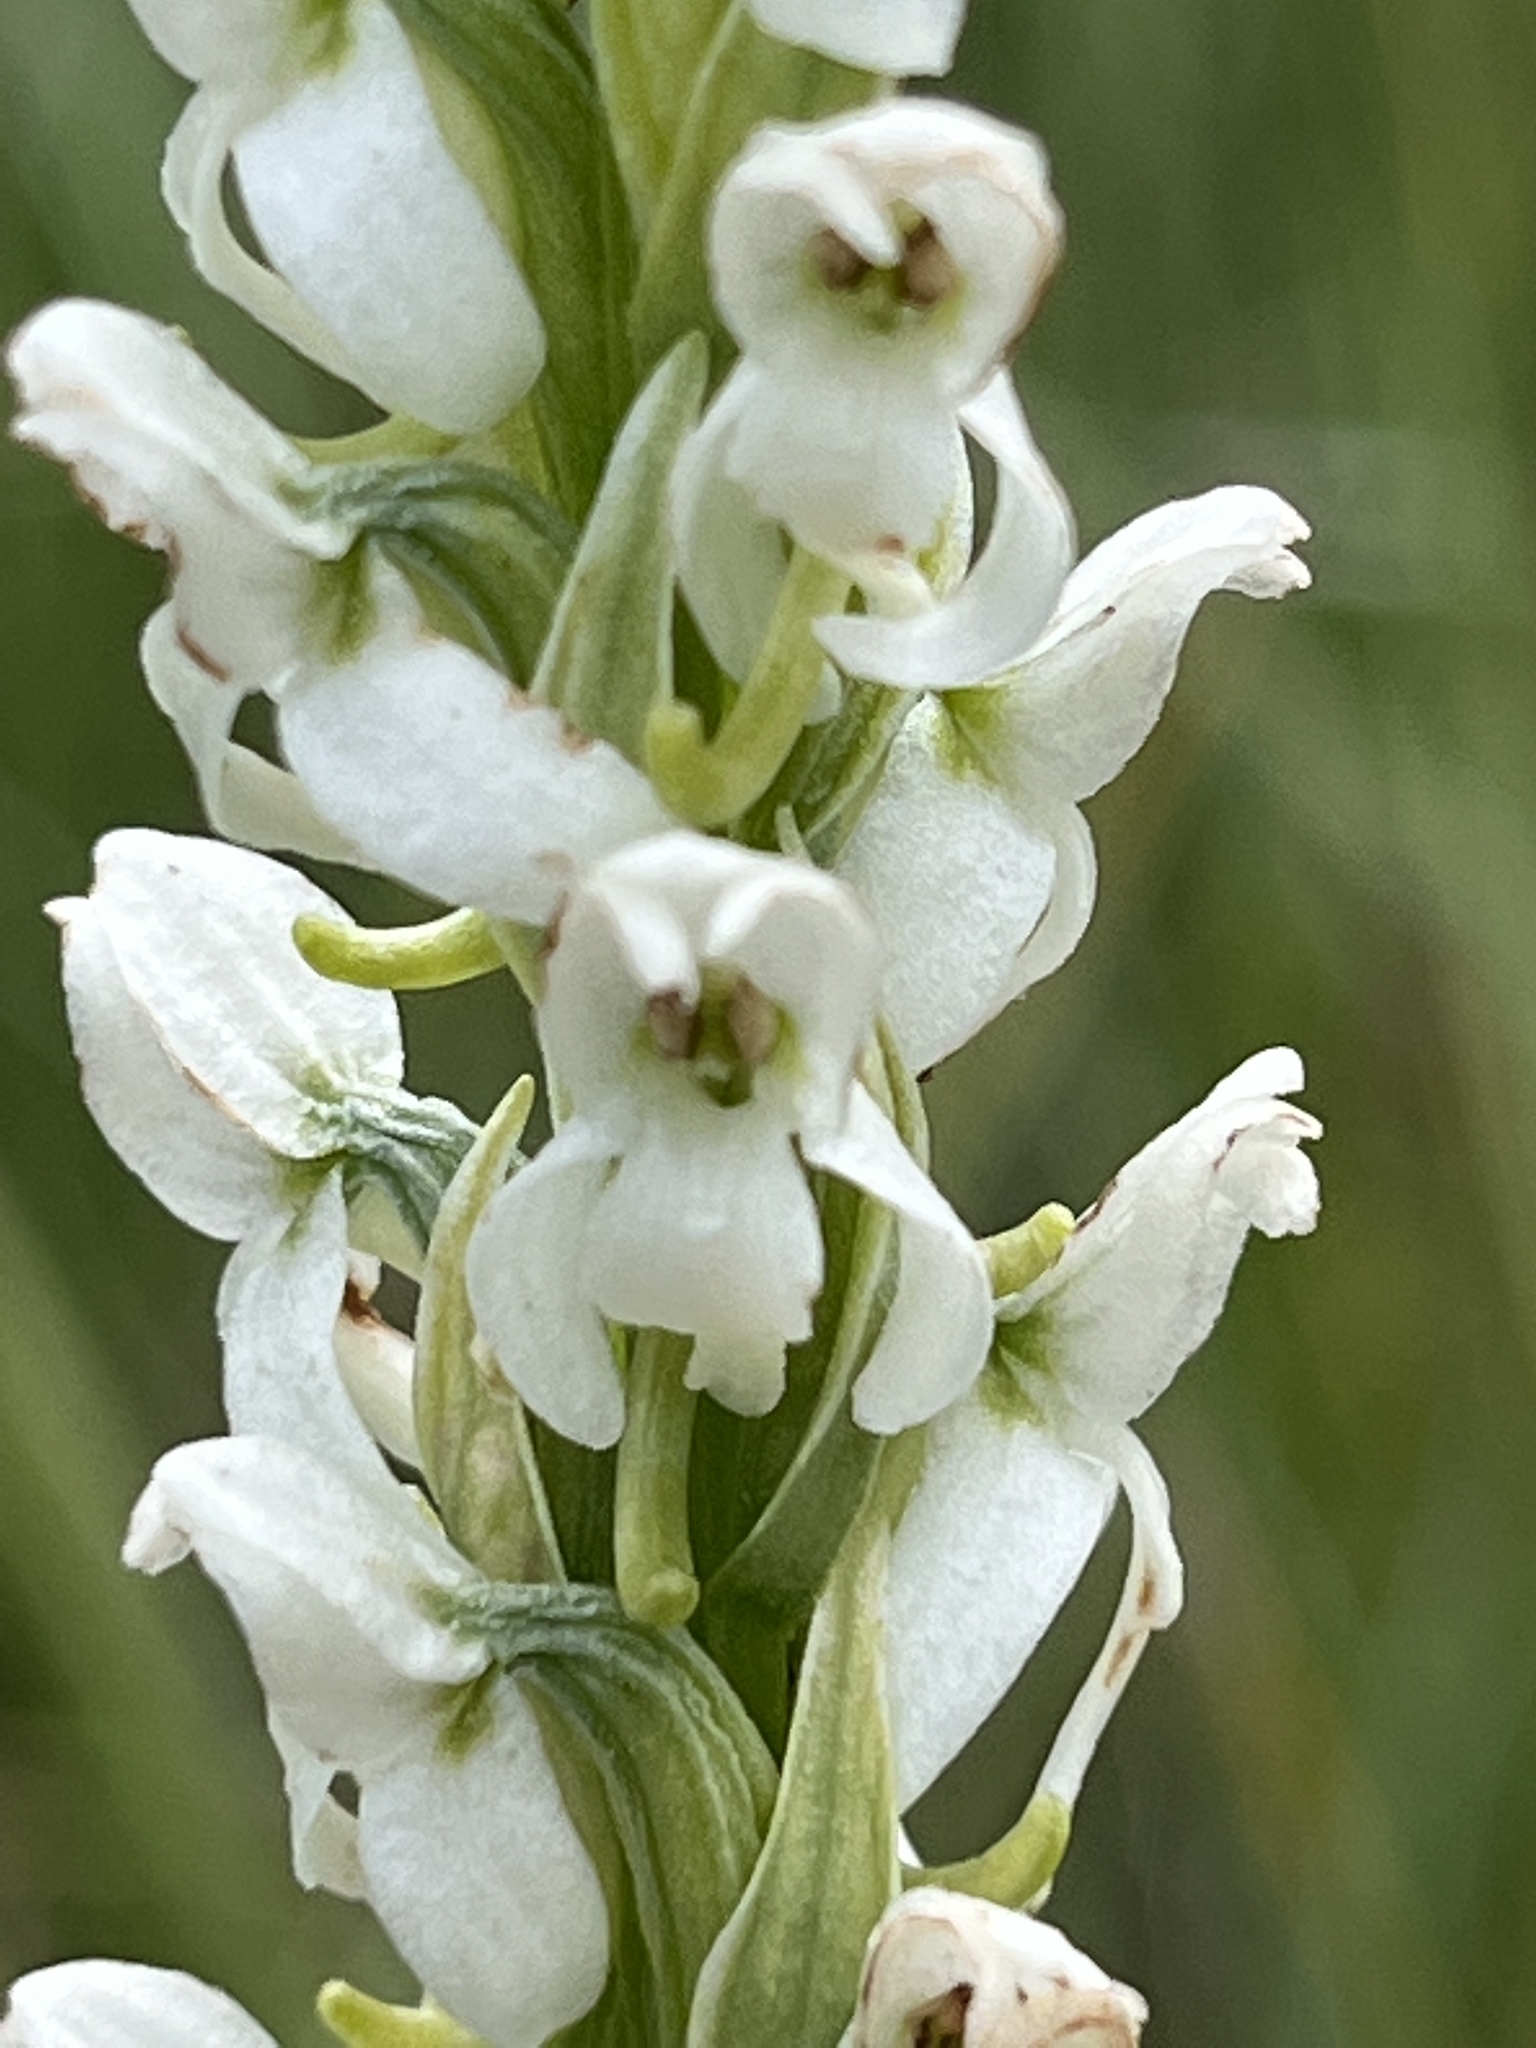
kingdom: Plantae
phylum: Tracheophyta
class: Liliopsida
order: Asparagales
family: Orchidaceae
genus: Platanthera
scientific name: Platanthera dilatata
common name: Bog candles
